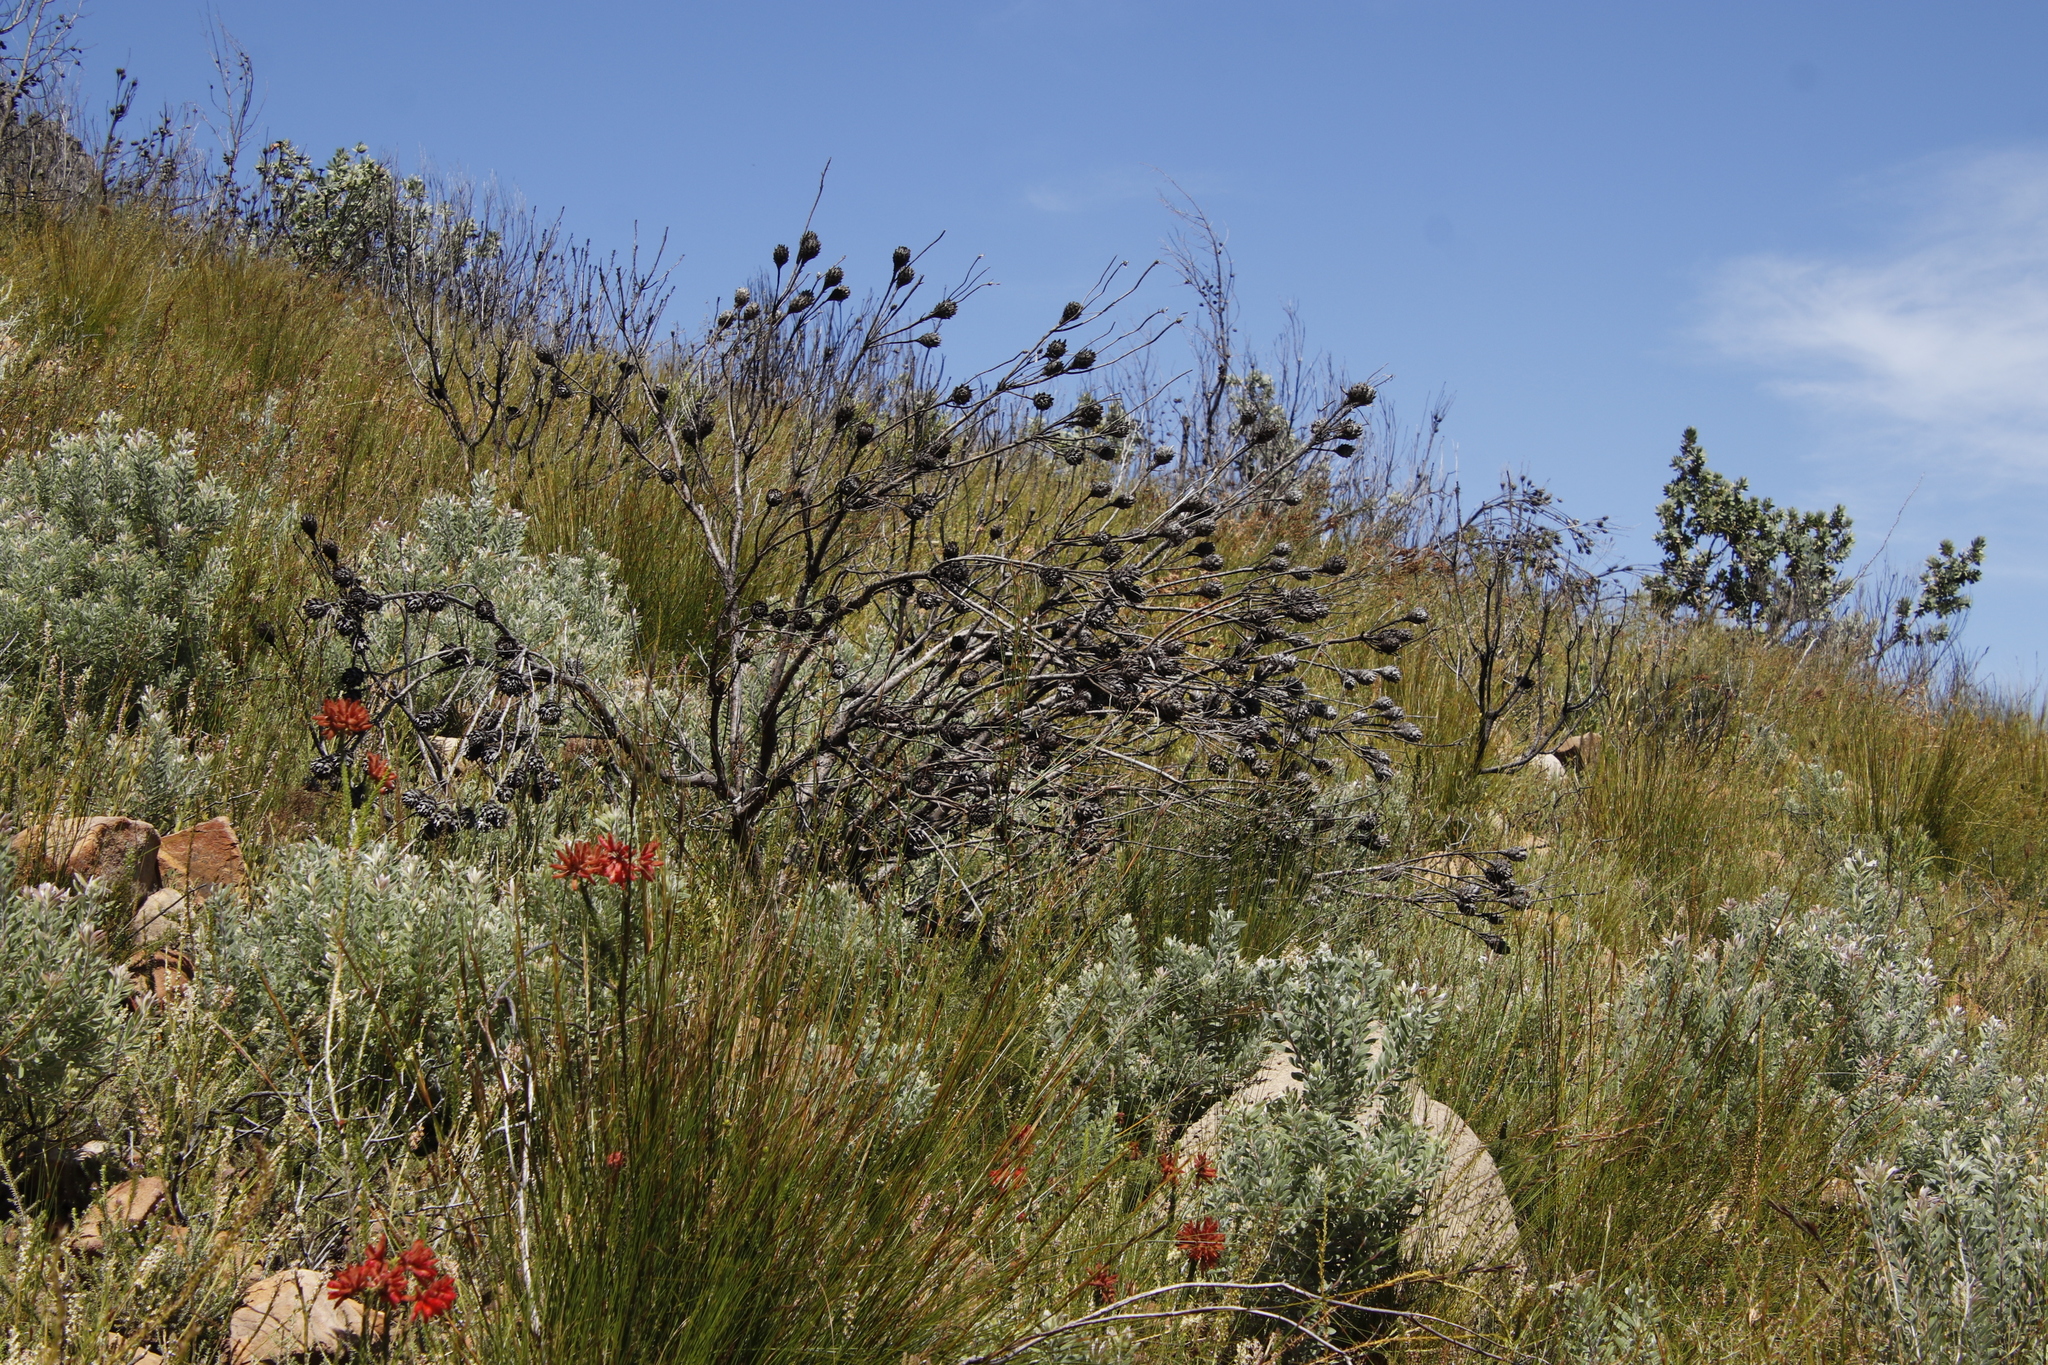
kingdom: Plantae
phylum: Tracheophyta
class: Magnoliopsida
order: Proteales
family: Proteaceae
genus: Leucadendron
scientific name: Leucadendron rubrum
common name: Spinning top
